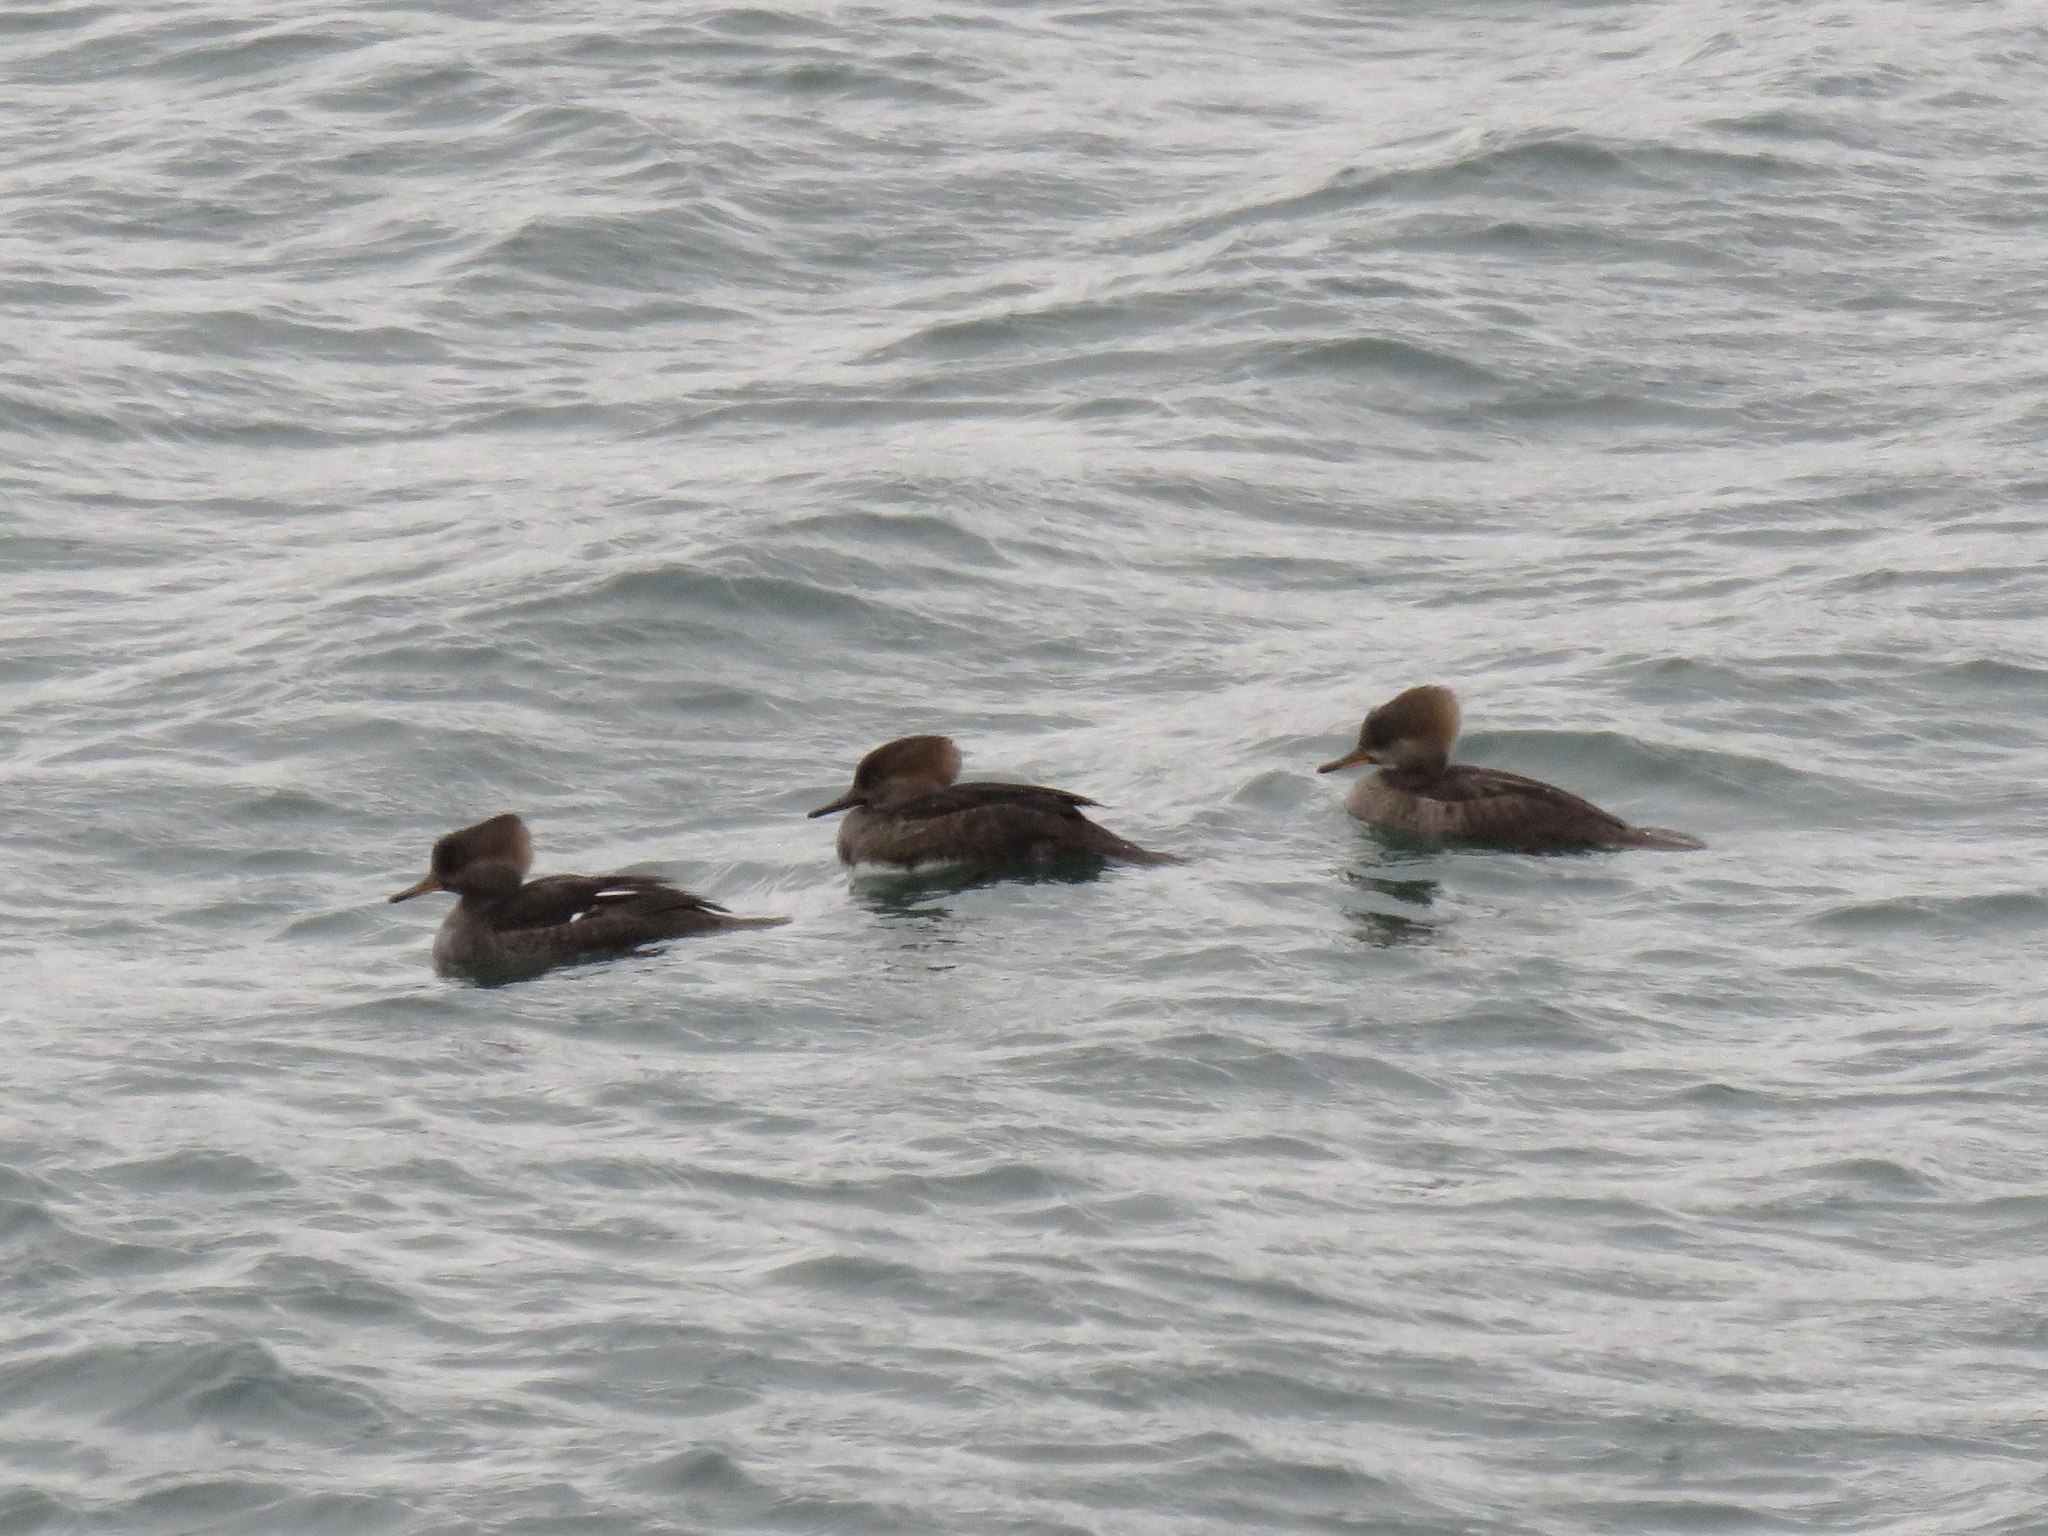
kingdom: Animalia
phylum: Chordata
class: Aves
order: Anseriformes
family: Anatidae
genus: Lophodytes
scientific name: Lophodytes cucullatus
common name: Hooded merganser
